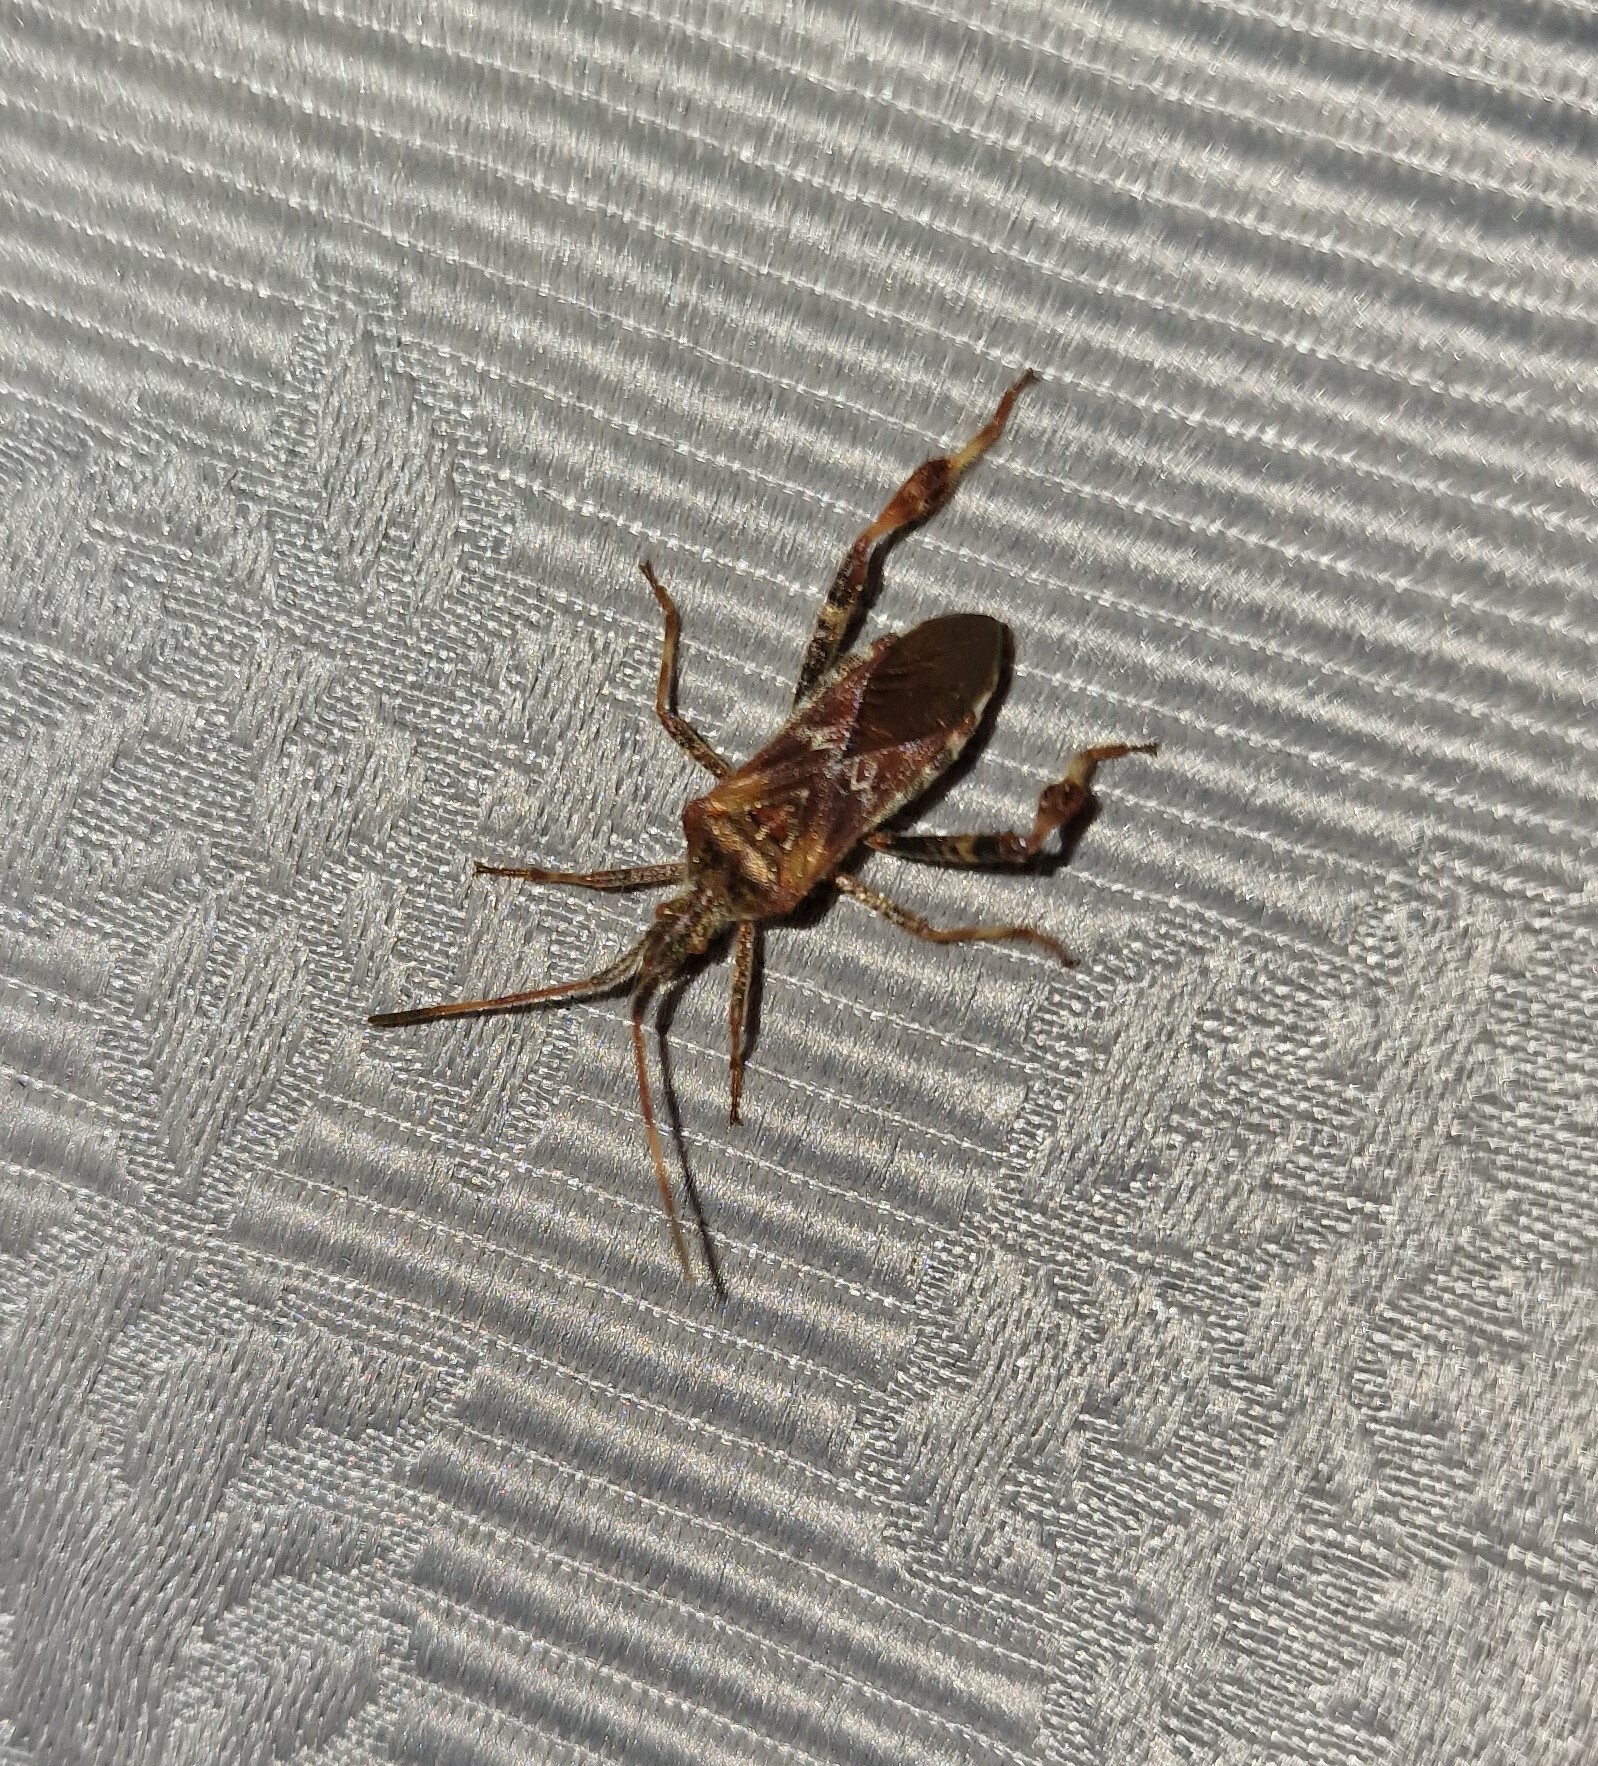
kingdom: Animalia
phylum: Arthropoda
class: Insecta
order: Hemiptera
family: Coreidae
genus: Leptoglossus
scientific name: Leptoglossus occidentalis
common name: Western conifer-seed bug
